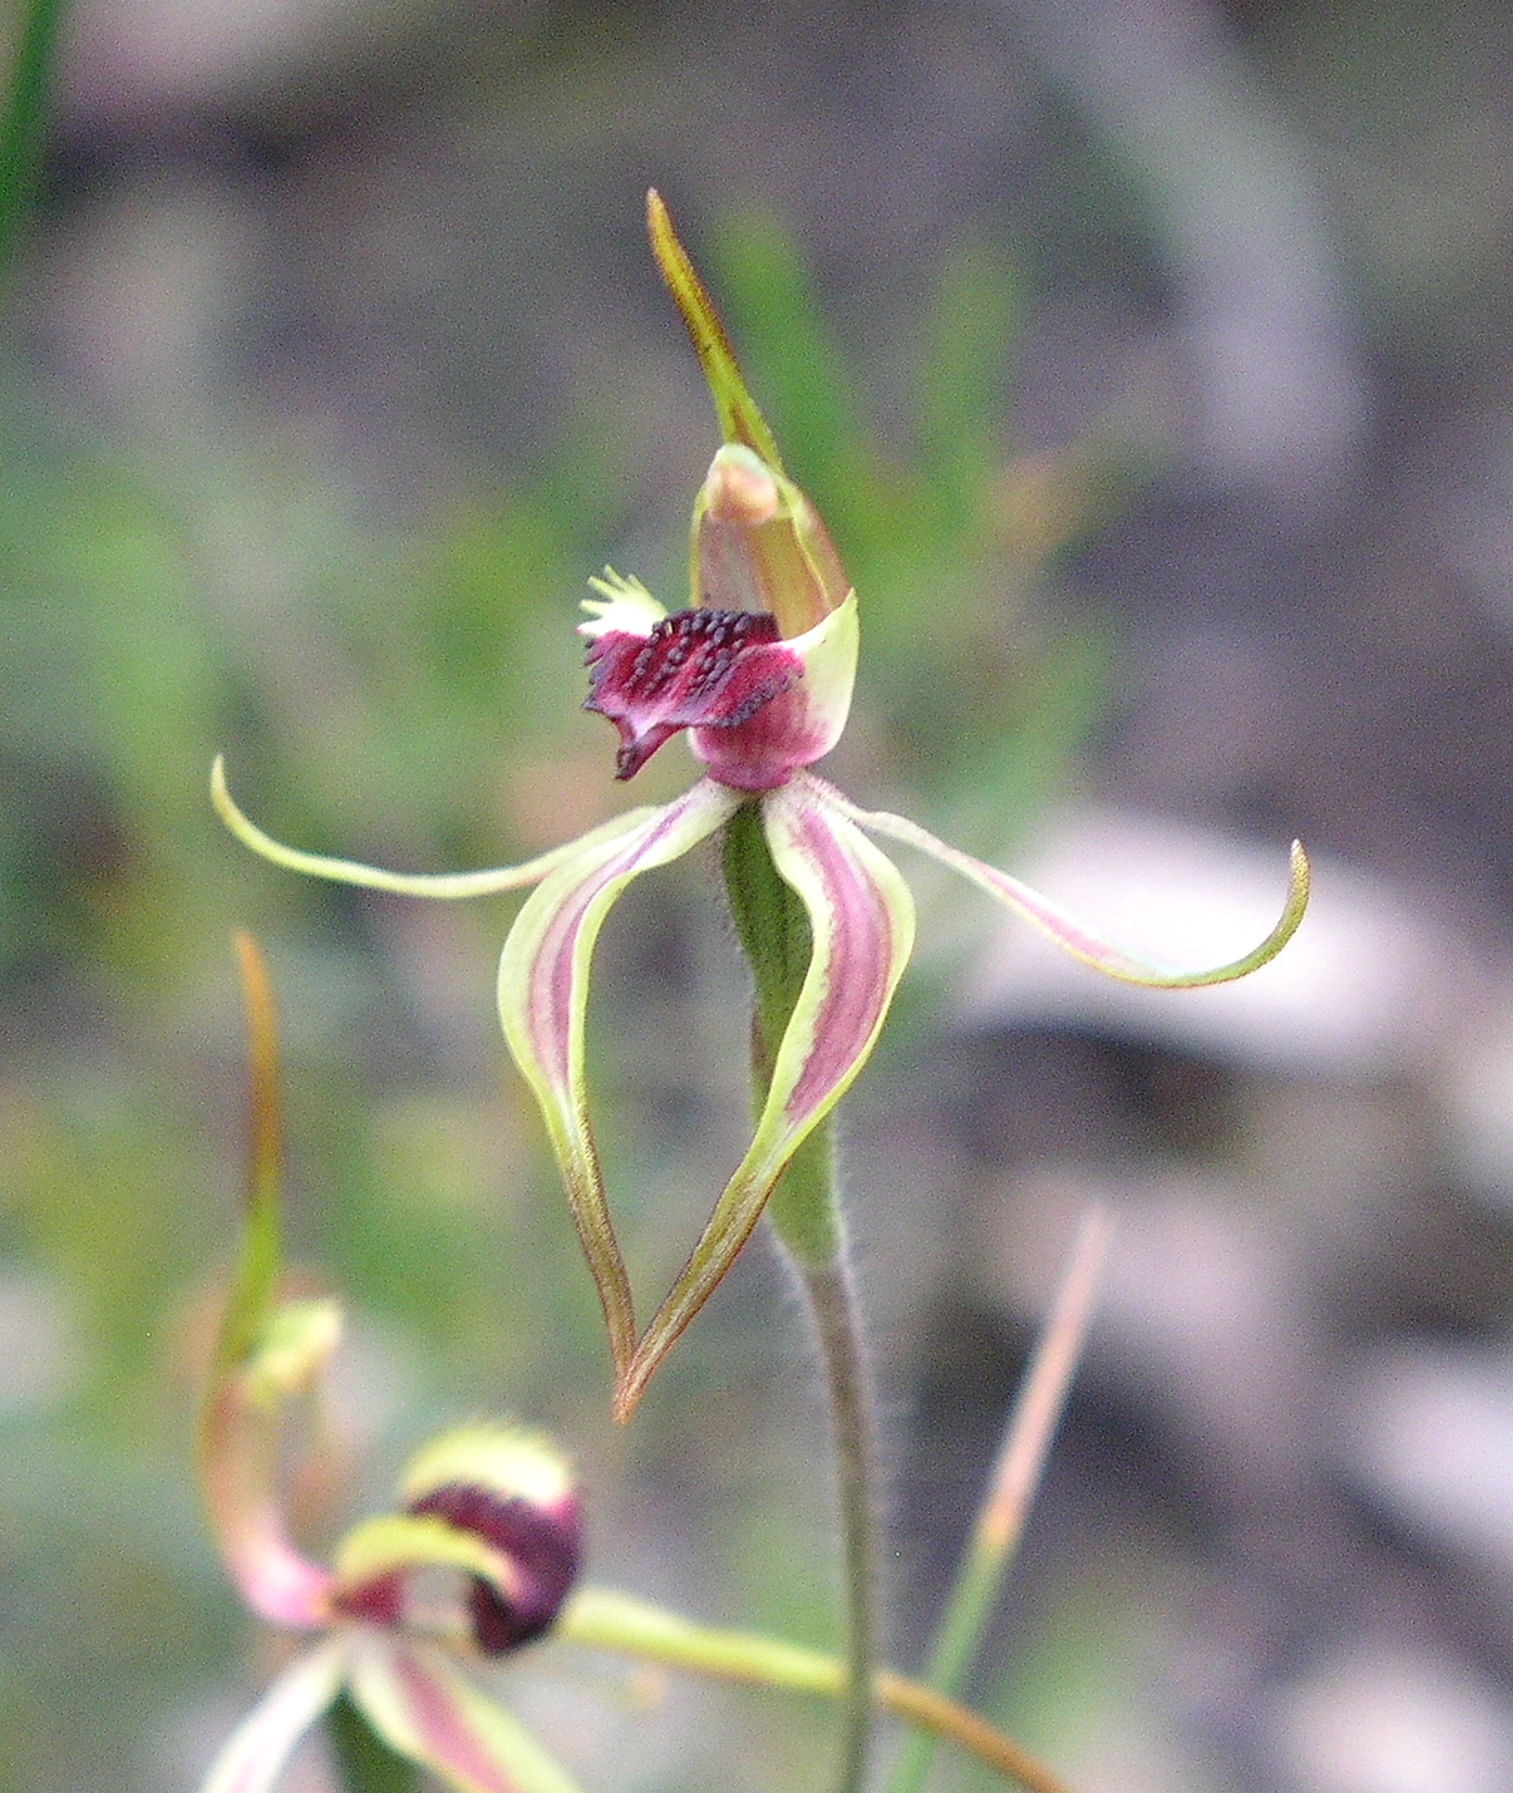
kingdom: Plantae
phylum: Tracheophyta
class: Liliopsida
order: Asparagales
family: Orchidaceae
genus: Caladenia
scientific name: Caladenia ensata
